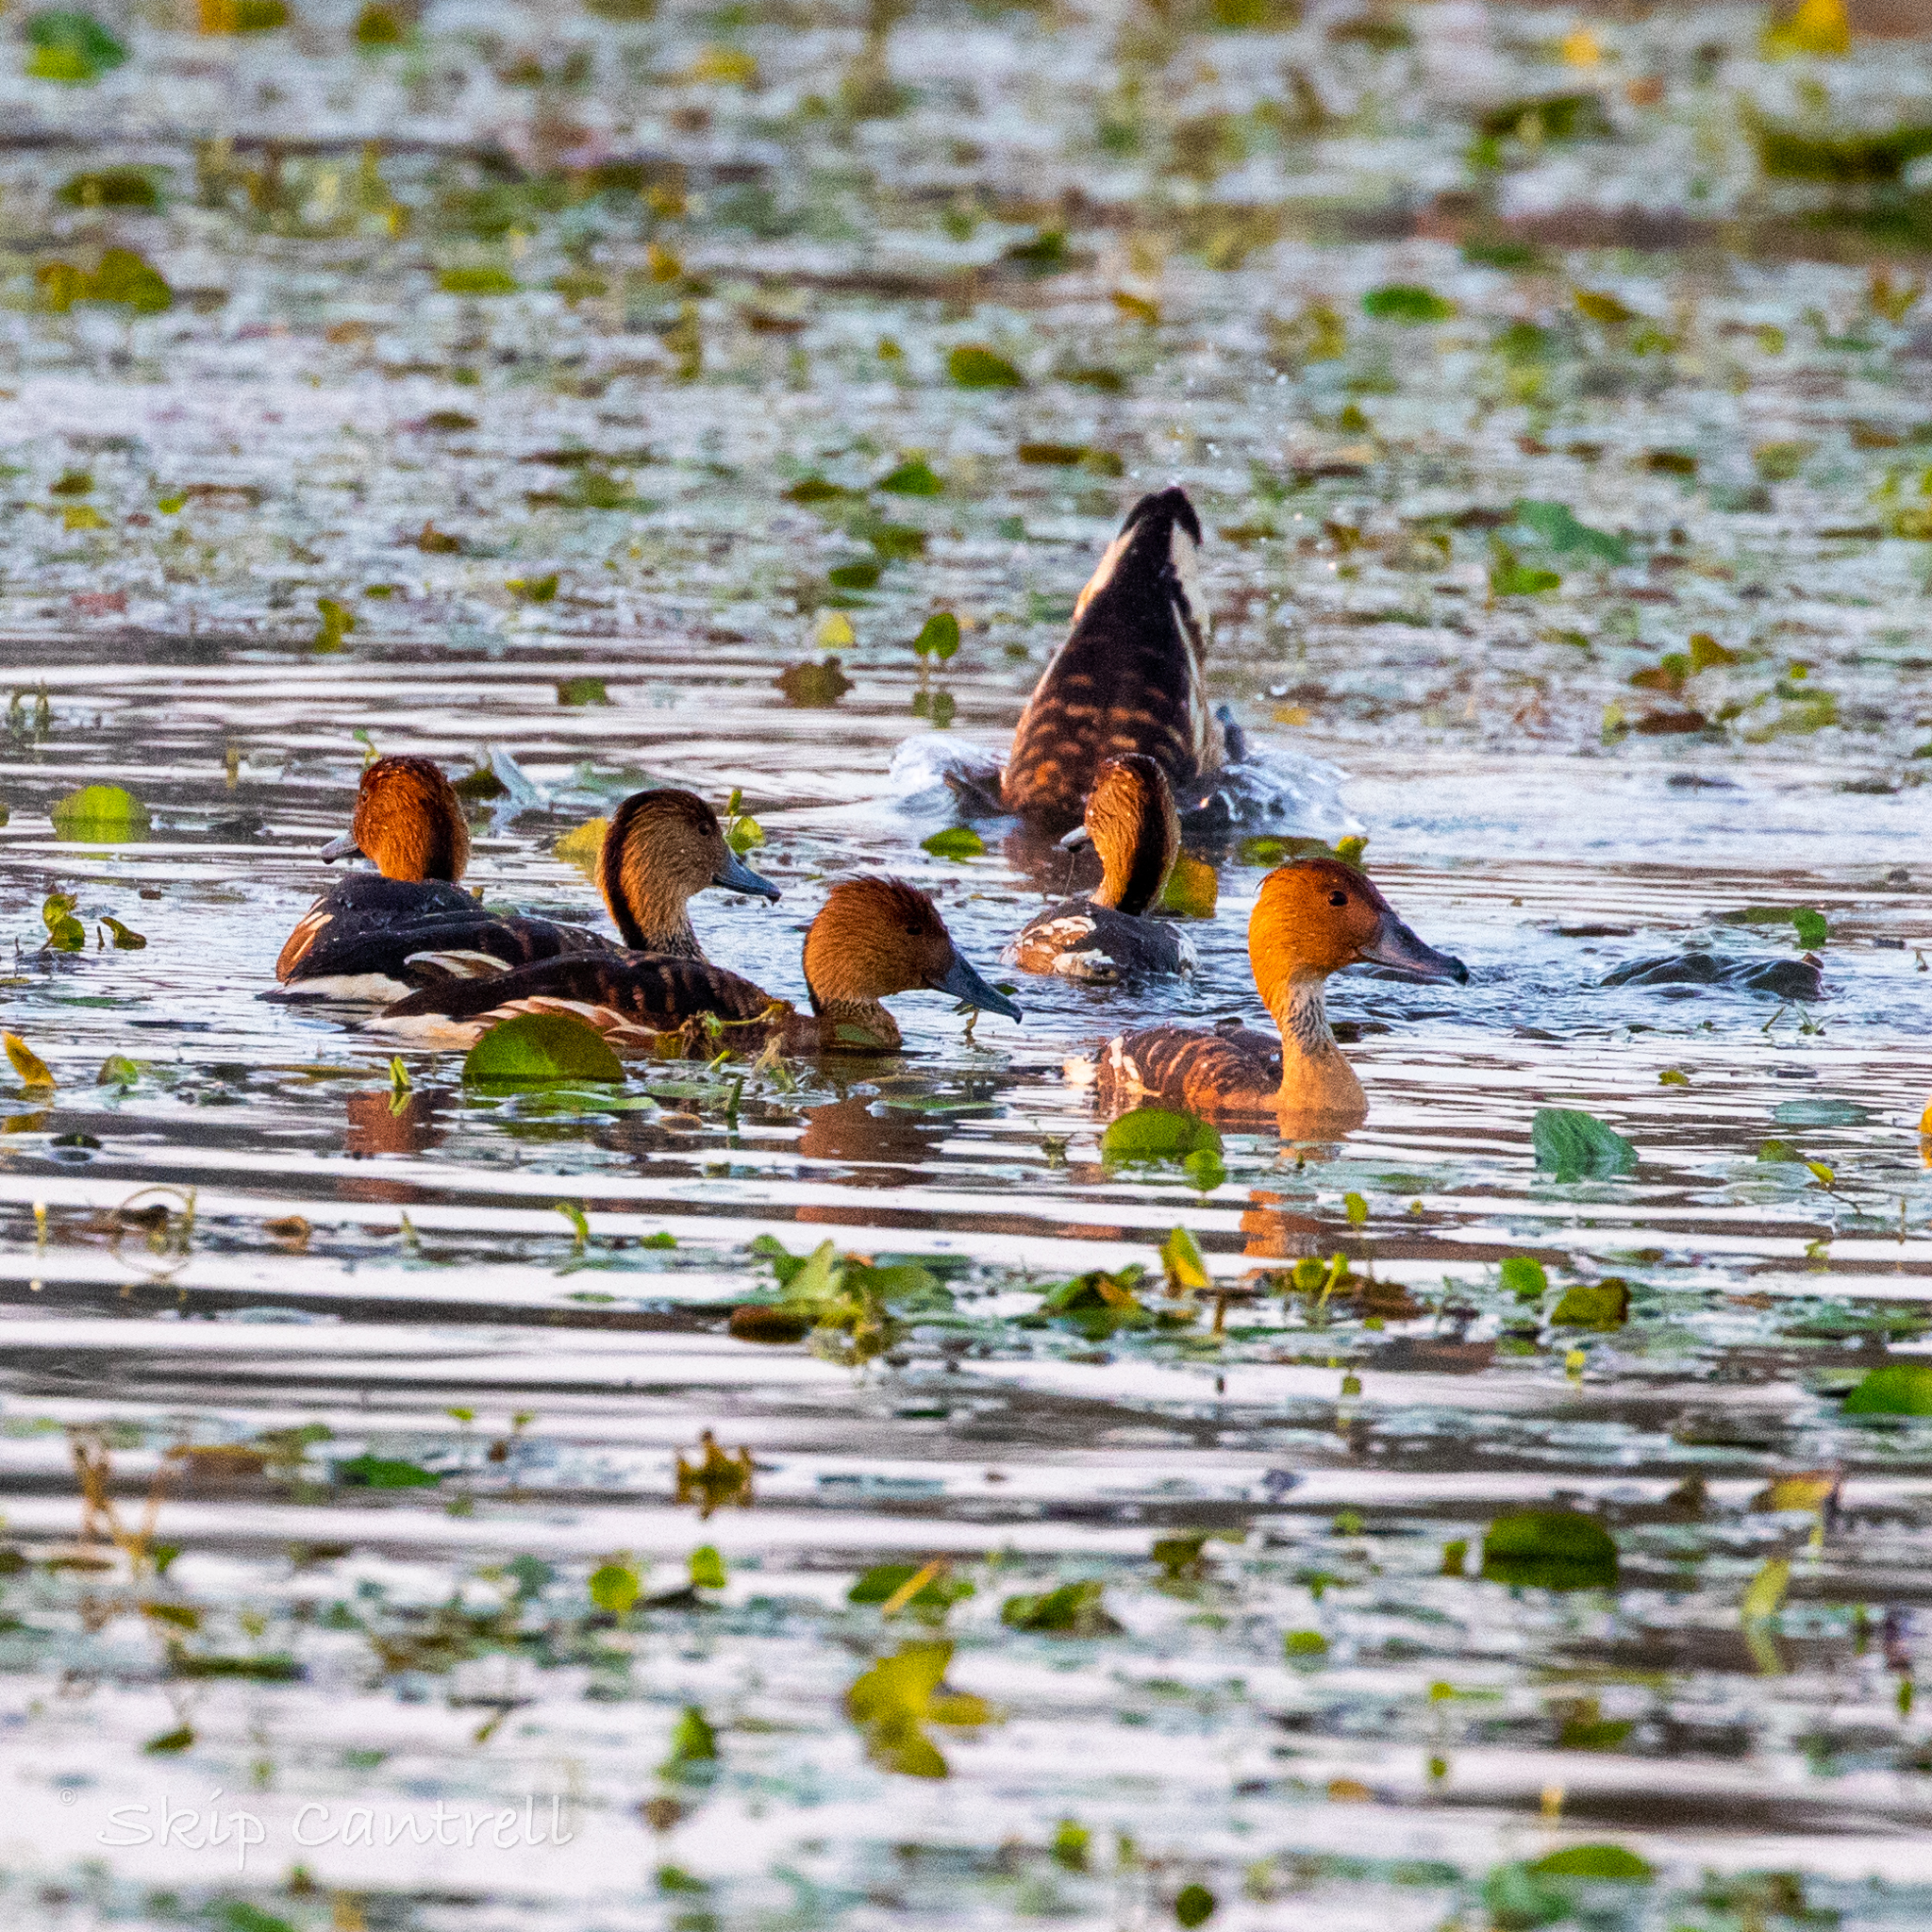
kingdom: Animalia
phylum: Chordata
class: Aves
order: Anseriformes
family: Anatidae
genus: Dendrocygna
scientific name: Dendrocygna bicolor
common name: Fulvous whistling duck
